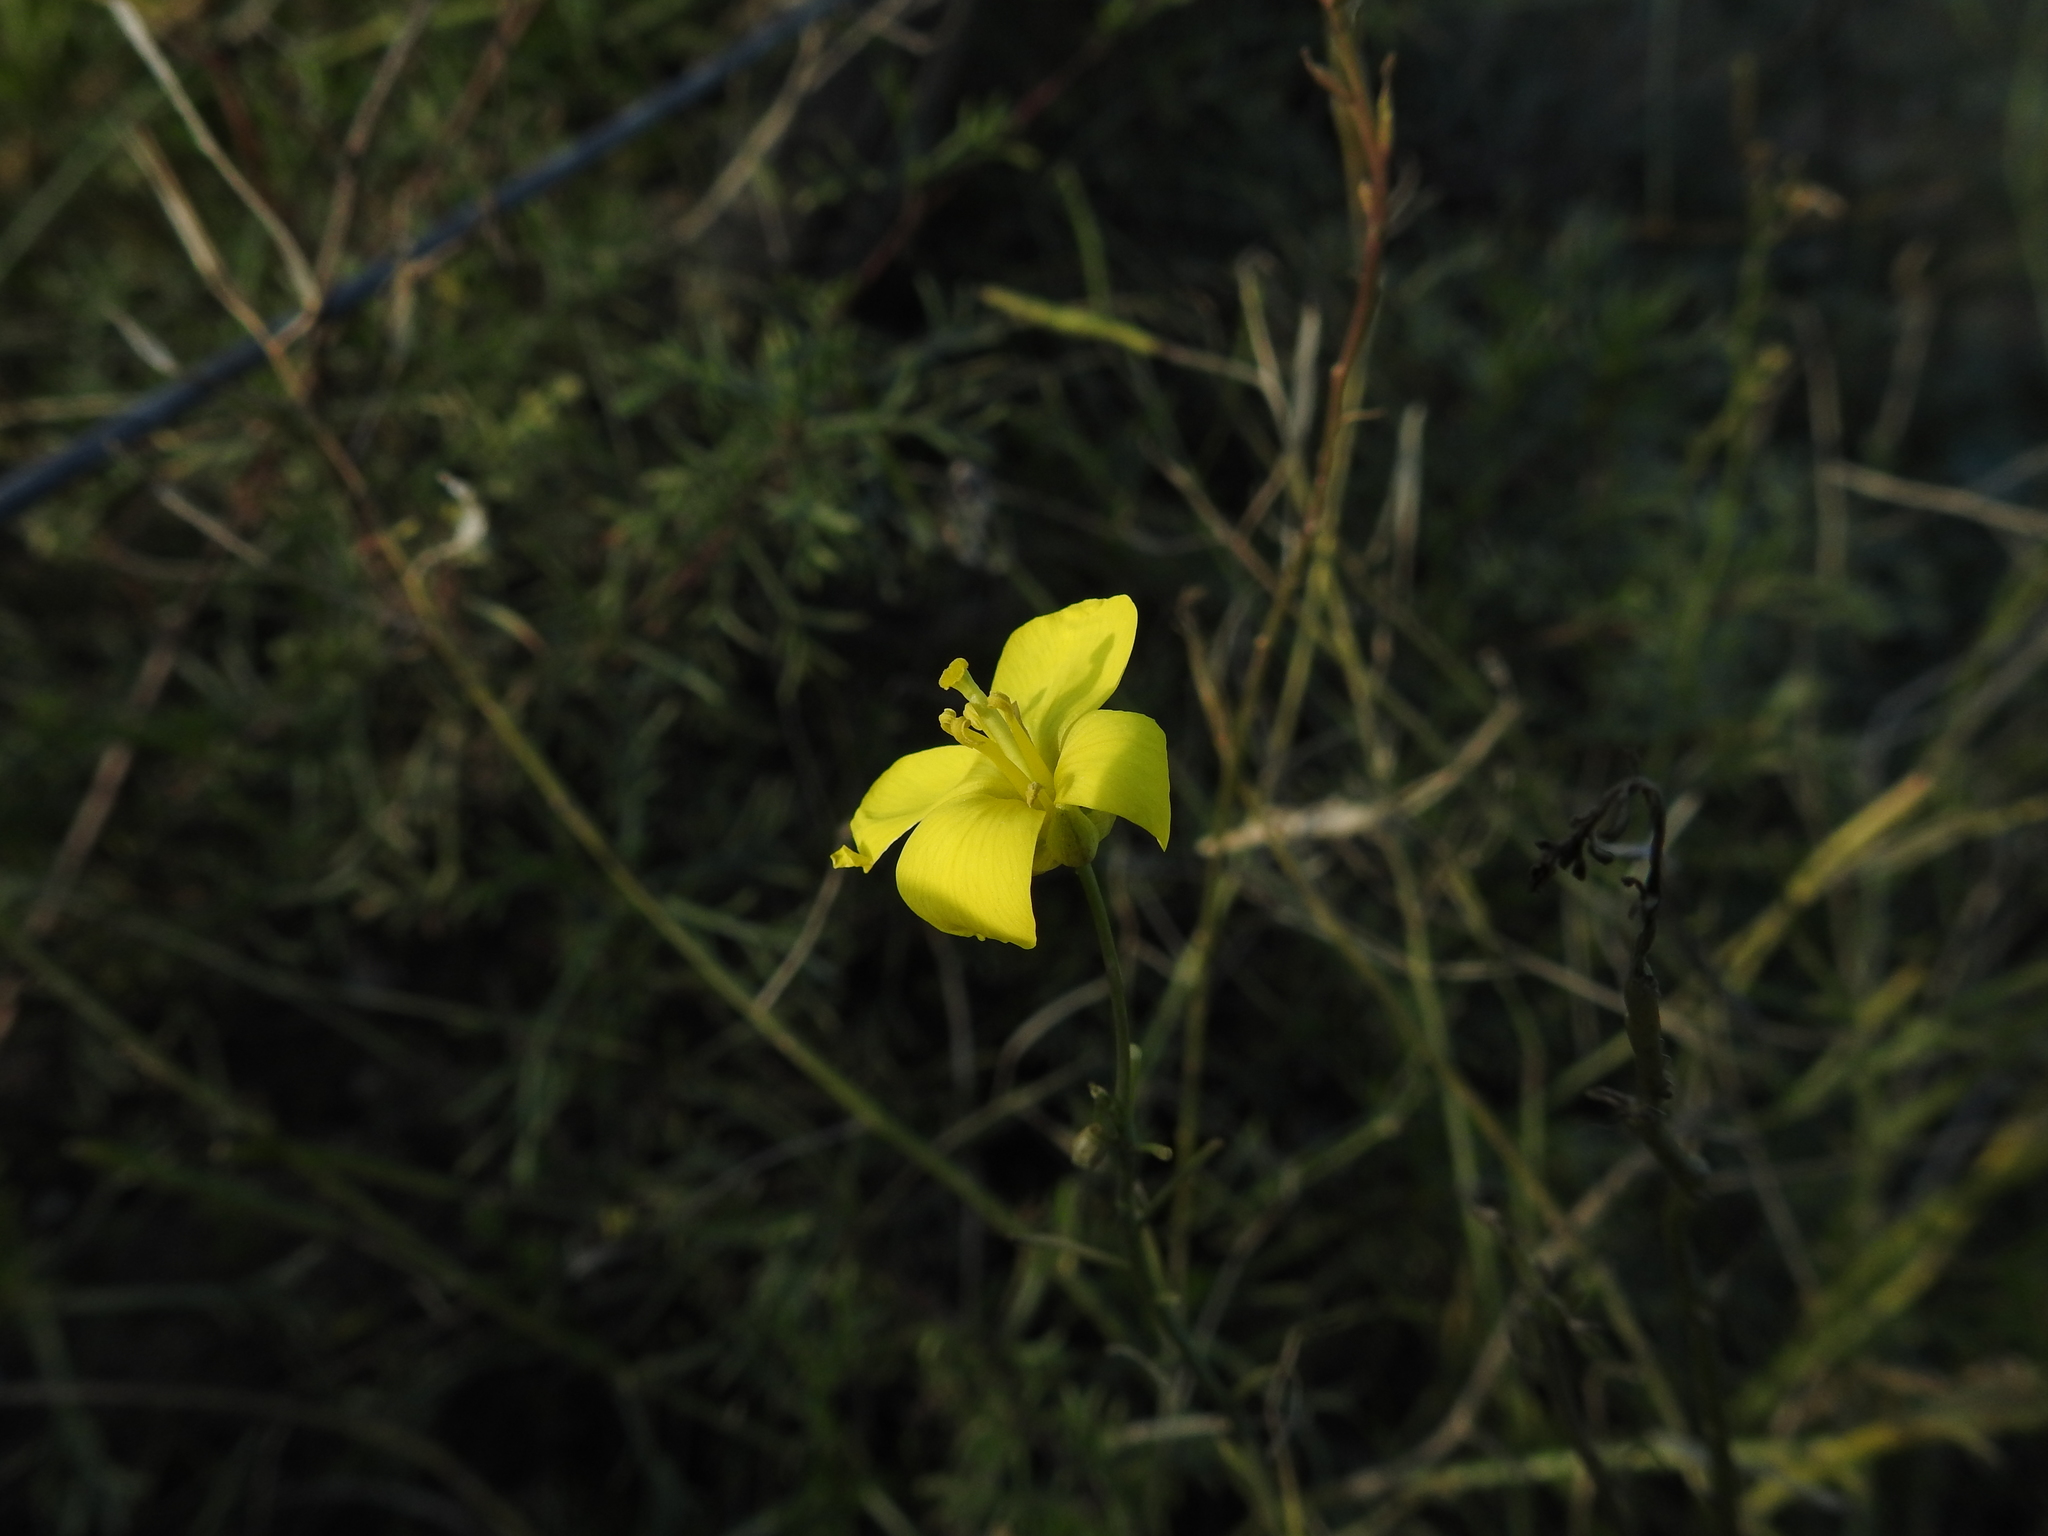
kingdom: Plantae
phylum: Tracheophyta
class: Magnoliopsida
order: Brassicales
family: Brassicaceae
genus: Diplotaxis
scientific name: Diplotaxis tenuifolia
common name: Perennial wall-rocket
